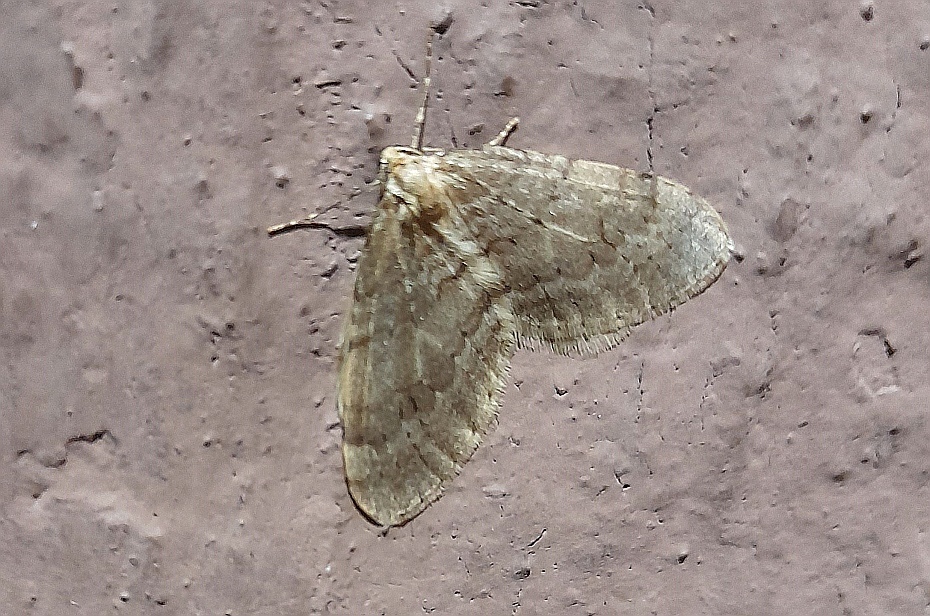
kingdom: Animalia
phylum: Arthropoda
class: Insecta
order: Lepidoptera
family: Geometridae
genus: Operophtera
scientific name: Operophtera fagata
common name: Northern winter moth
